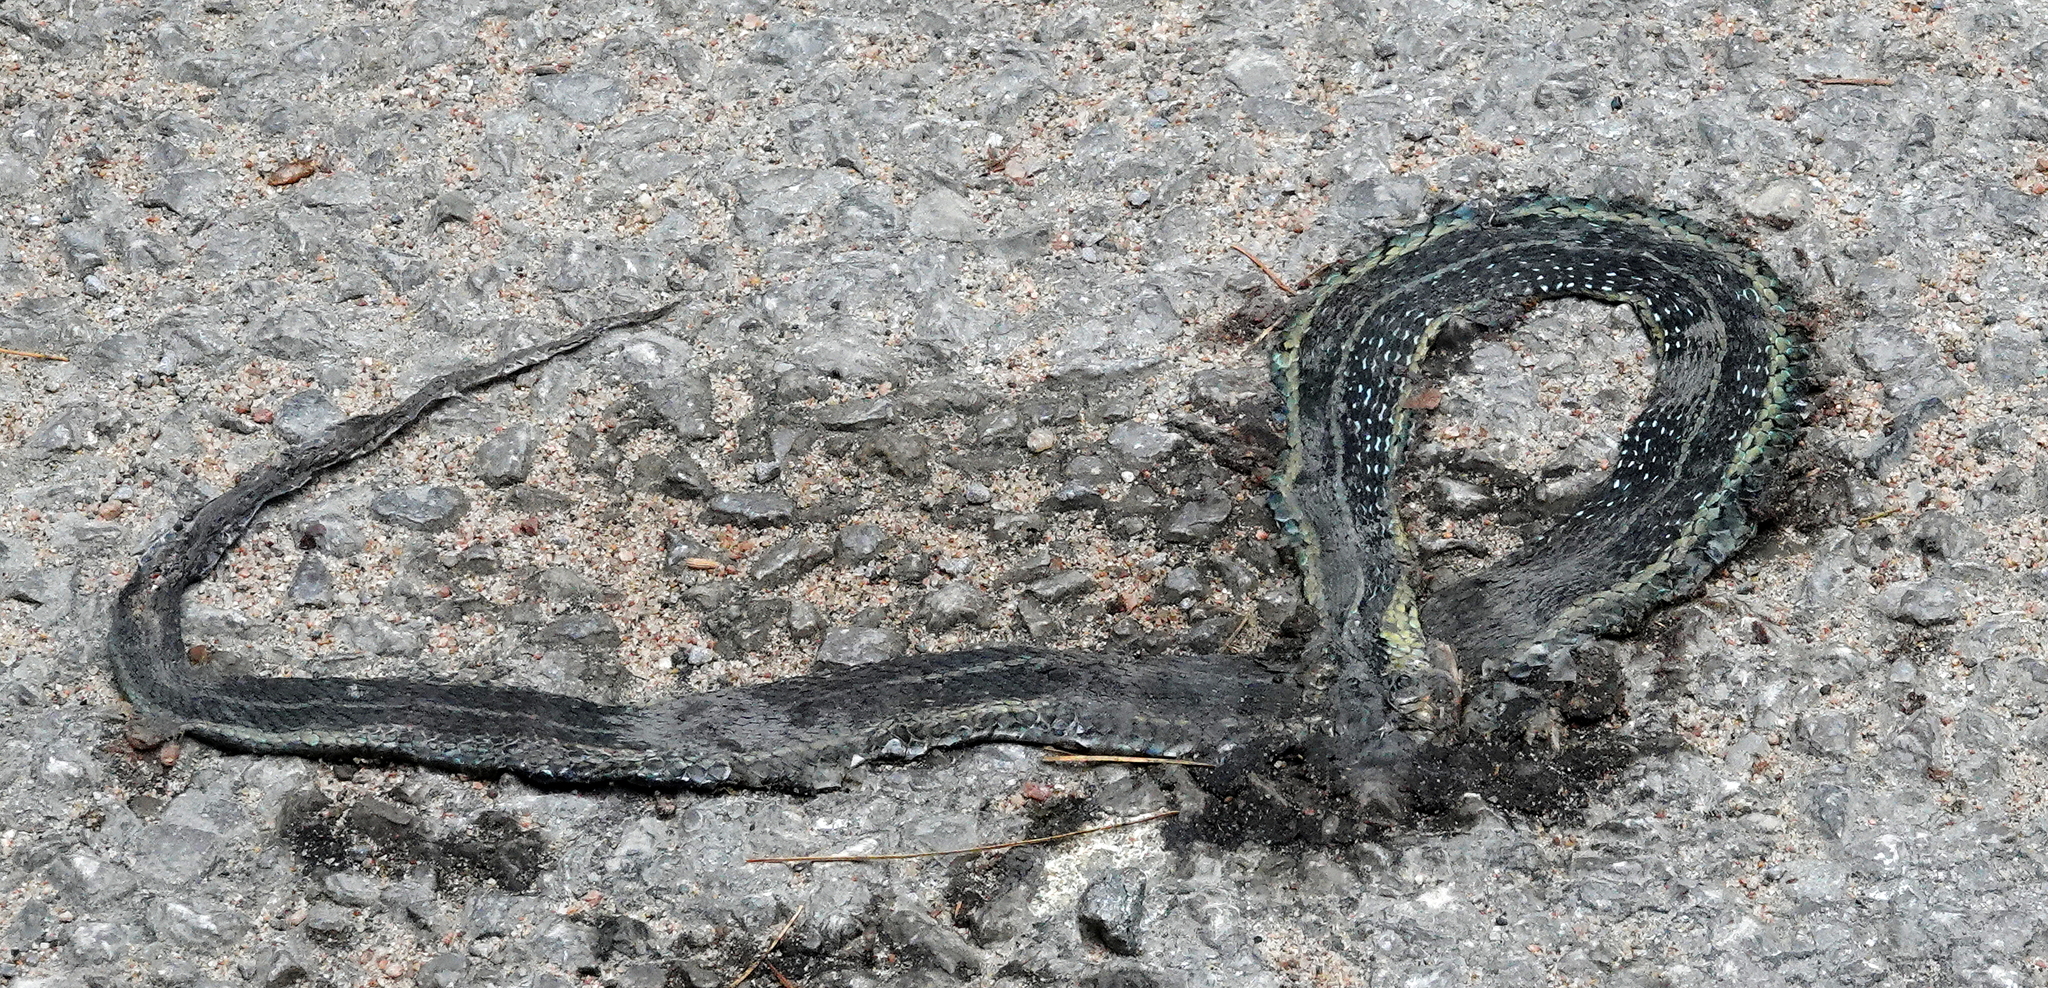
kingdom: Animalia
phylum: Chordata
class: Squamata
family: Colubridae
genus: Thamnophis
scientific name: Thamnophis sirtalis
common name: Common garter snake
